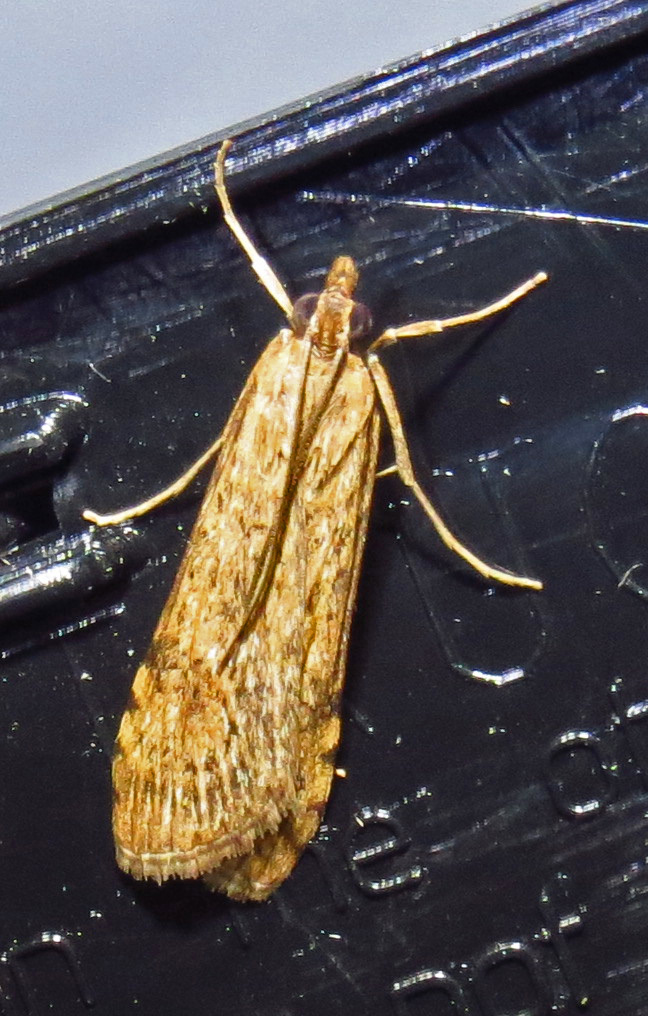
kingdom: Animalia
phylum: Arthropoda
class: Insecta
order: Lepidoptera
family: Crambidae
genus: Nomophila
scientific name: Nomophila nearctica
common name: American rush veneer
